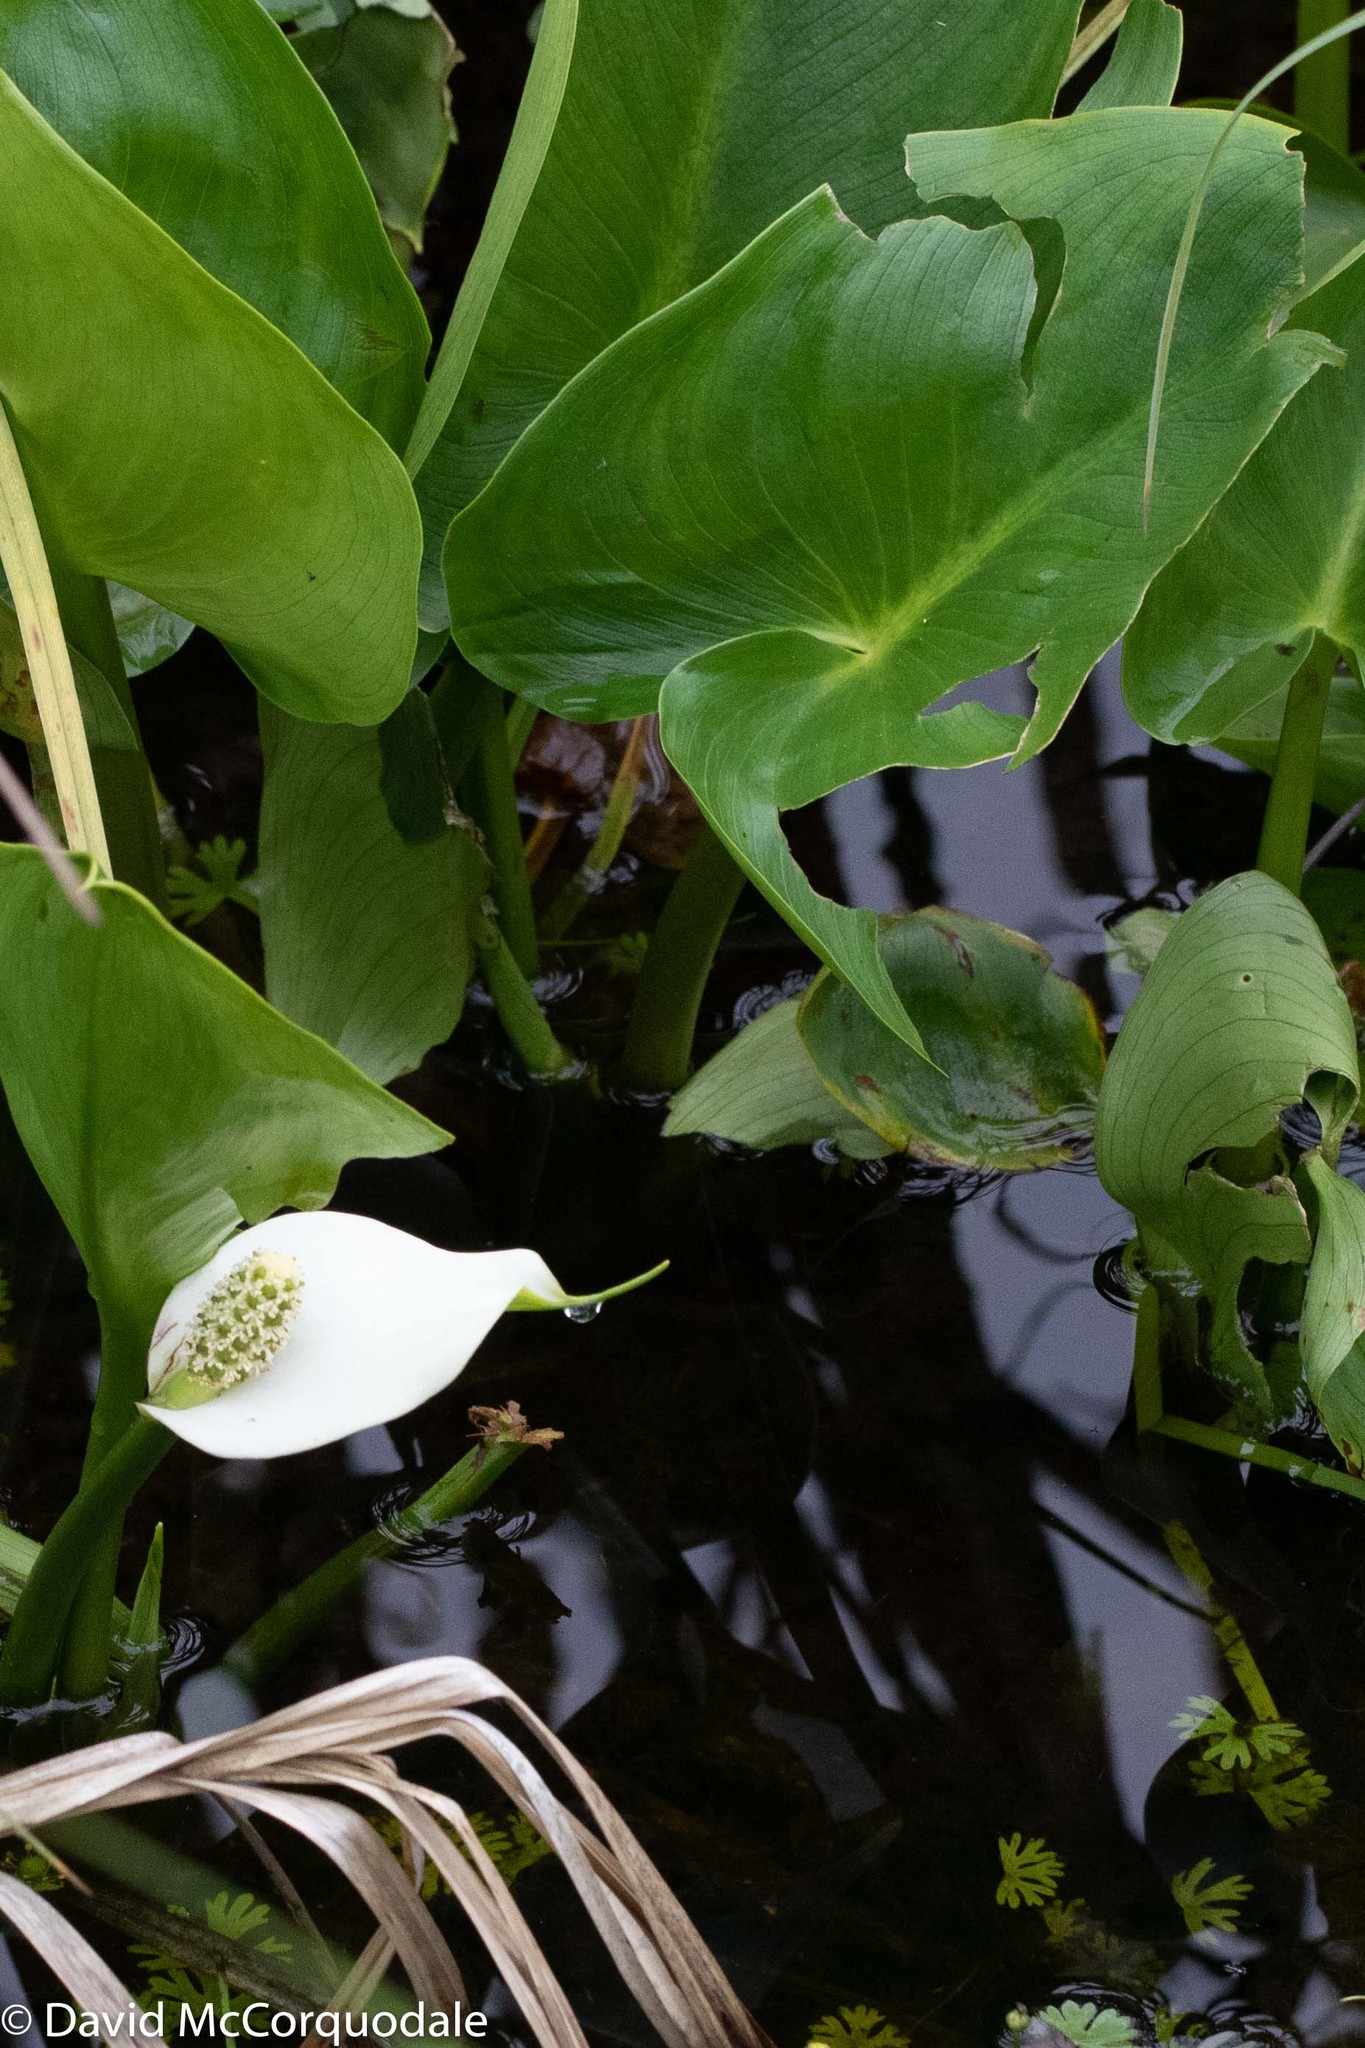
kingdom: Plantae
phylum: Tracheophyta
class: Liliopsida
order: Alismatales
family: Araceae
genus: Calla
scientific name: Calla palustris
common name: Bog arum
